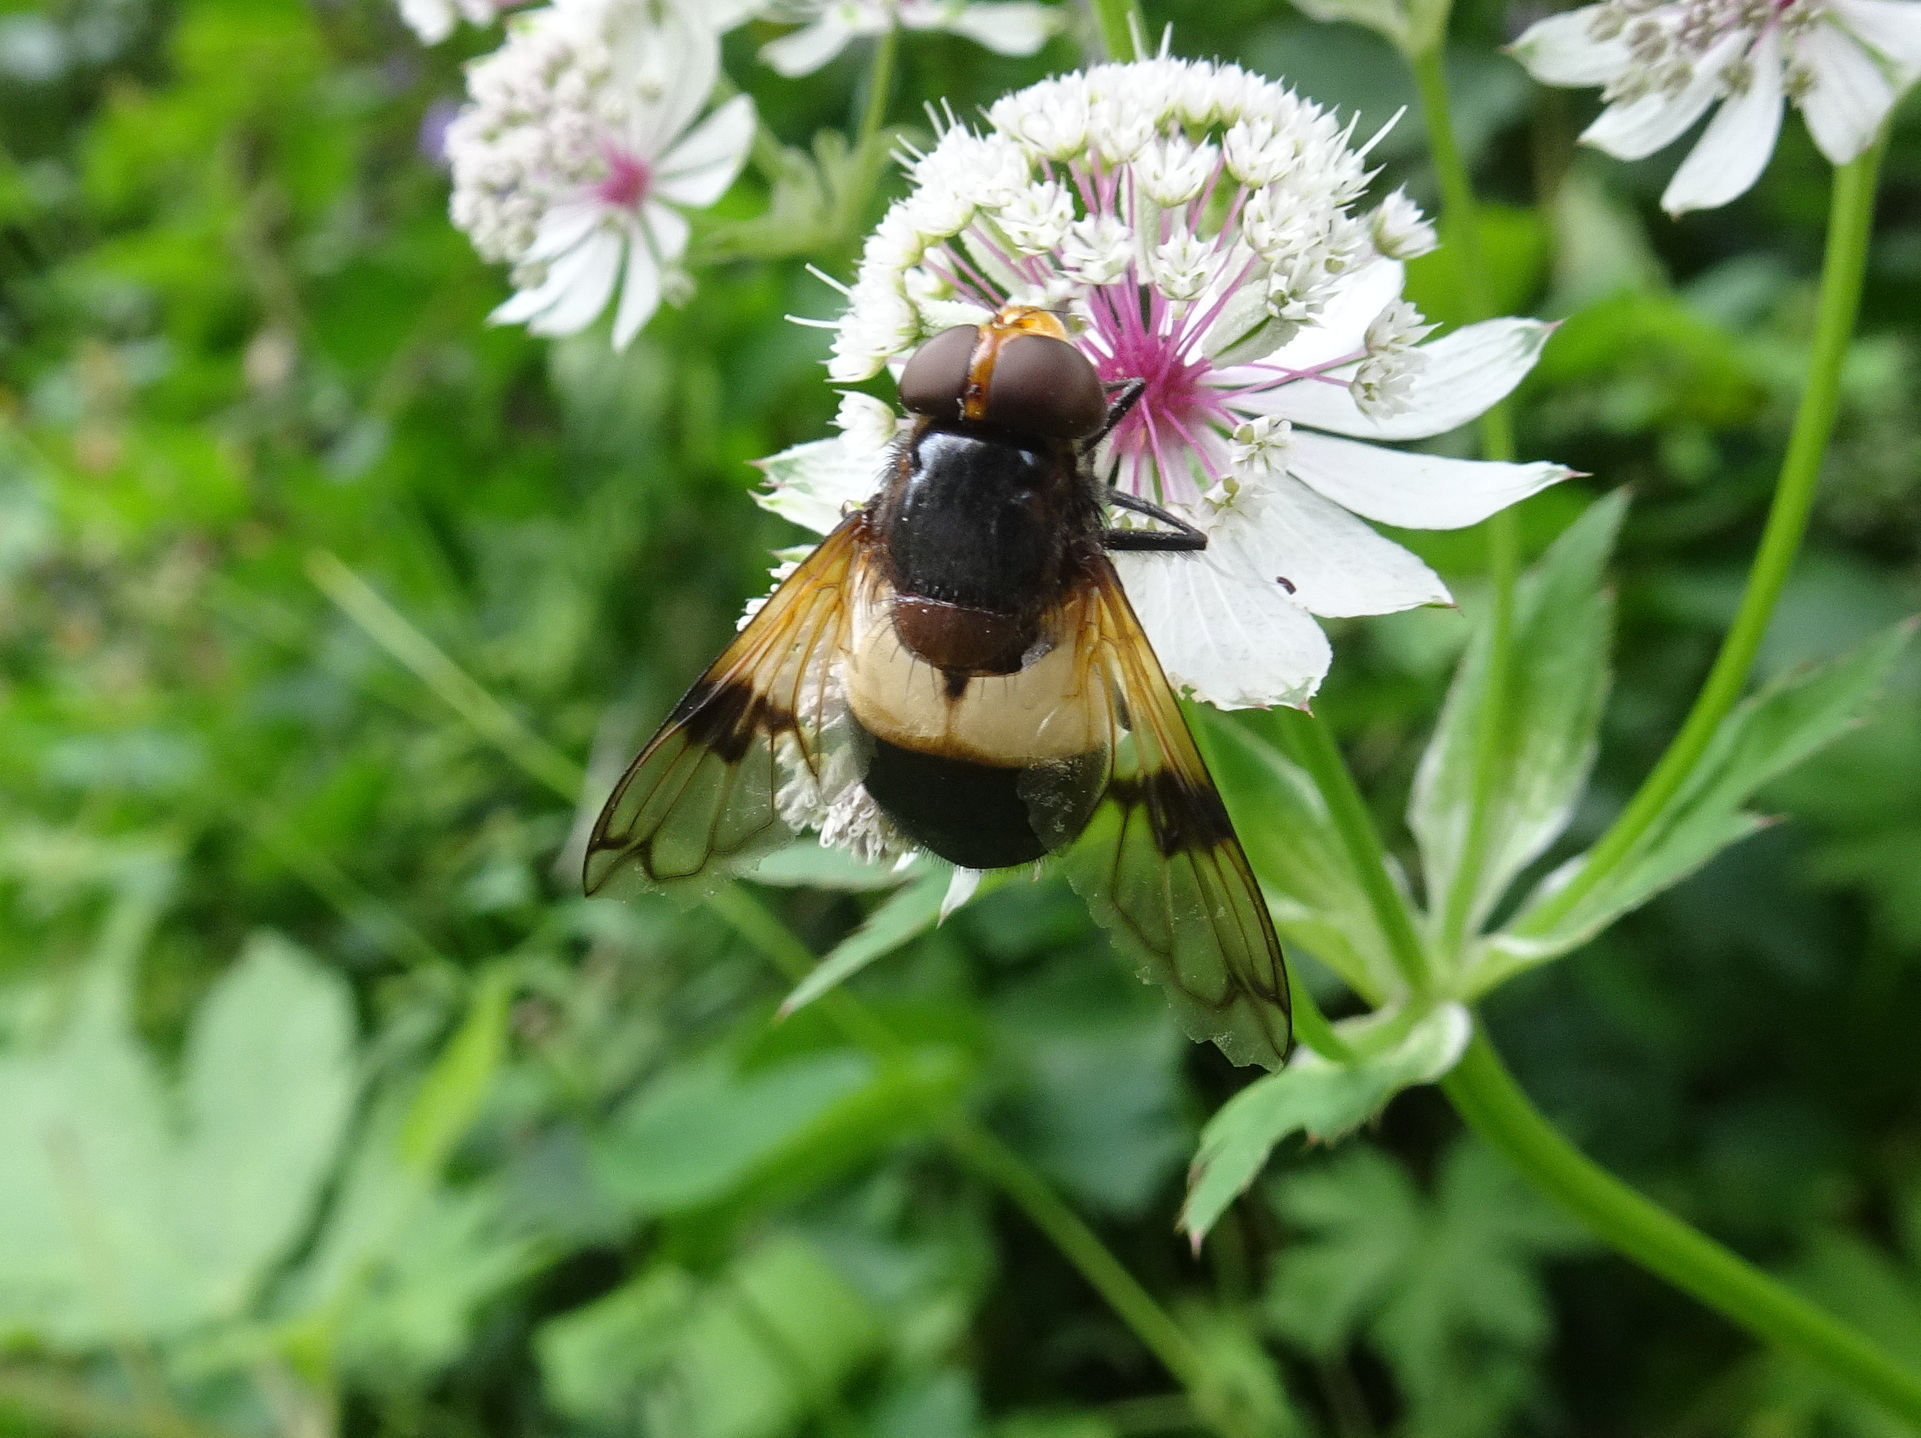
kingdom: Animalia
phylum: Arthropoda
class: Insecta
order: Diptera
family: Syrphidae
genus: Volucella
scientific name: Volucella pellucens
